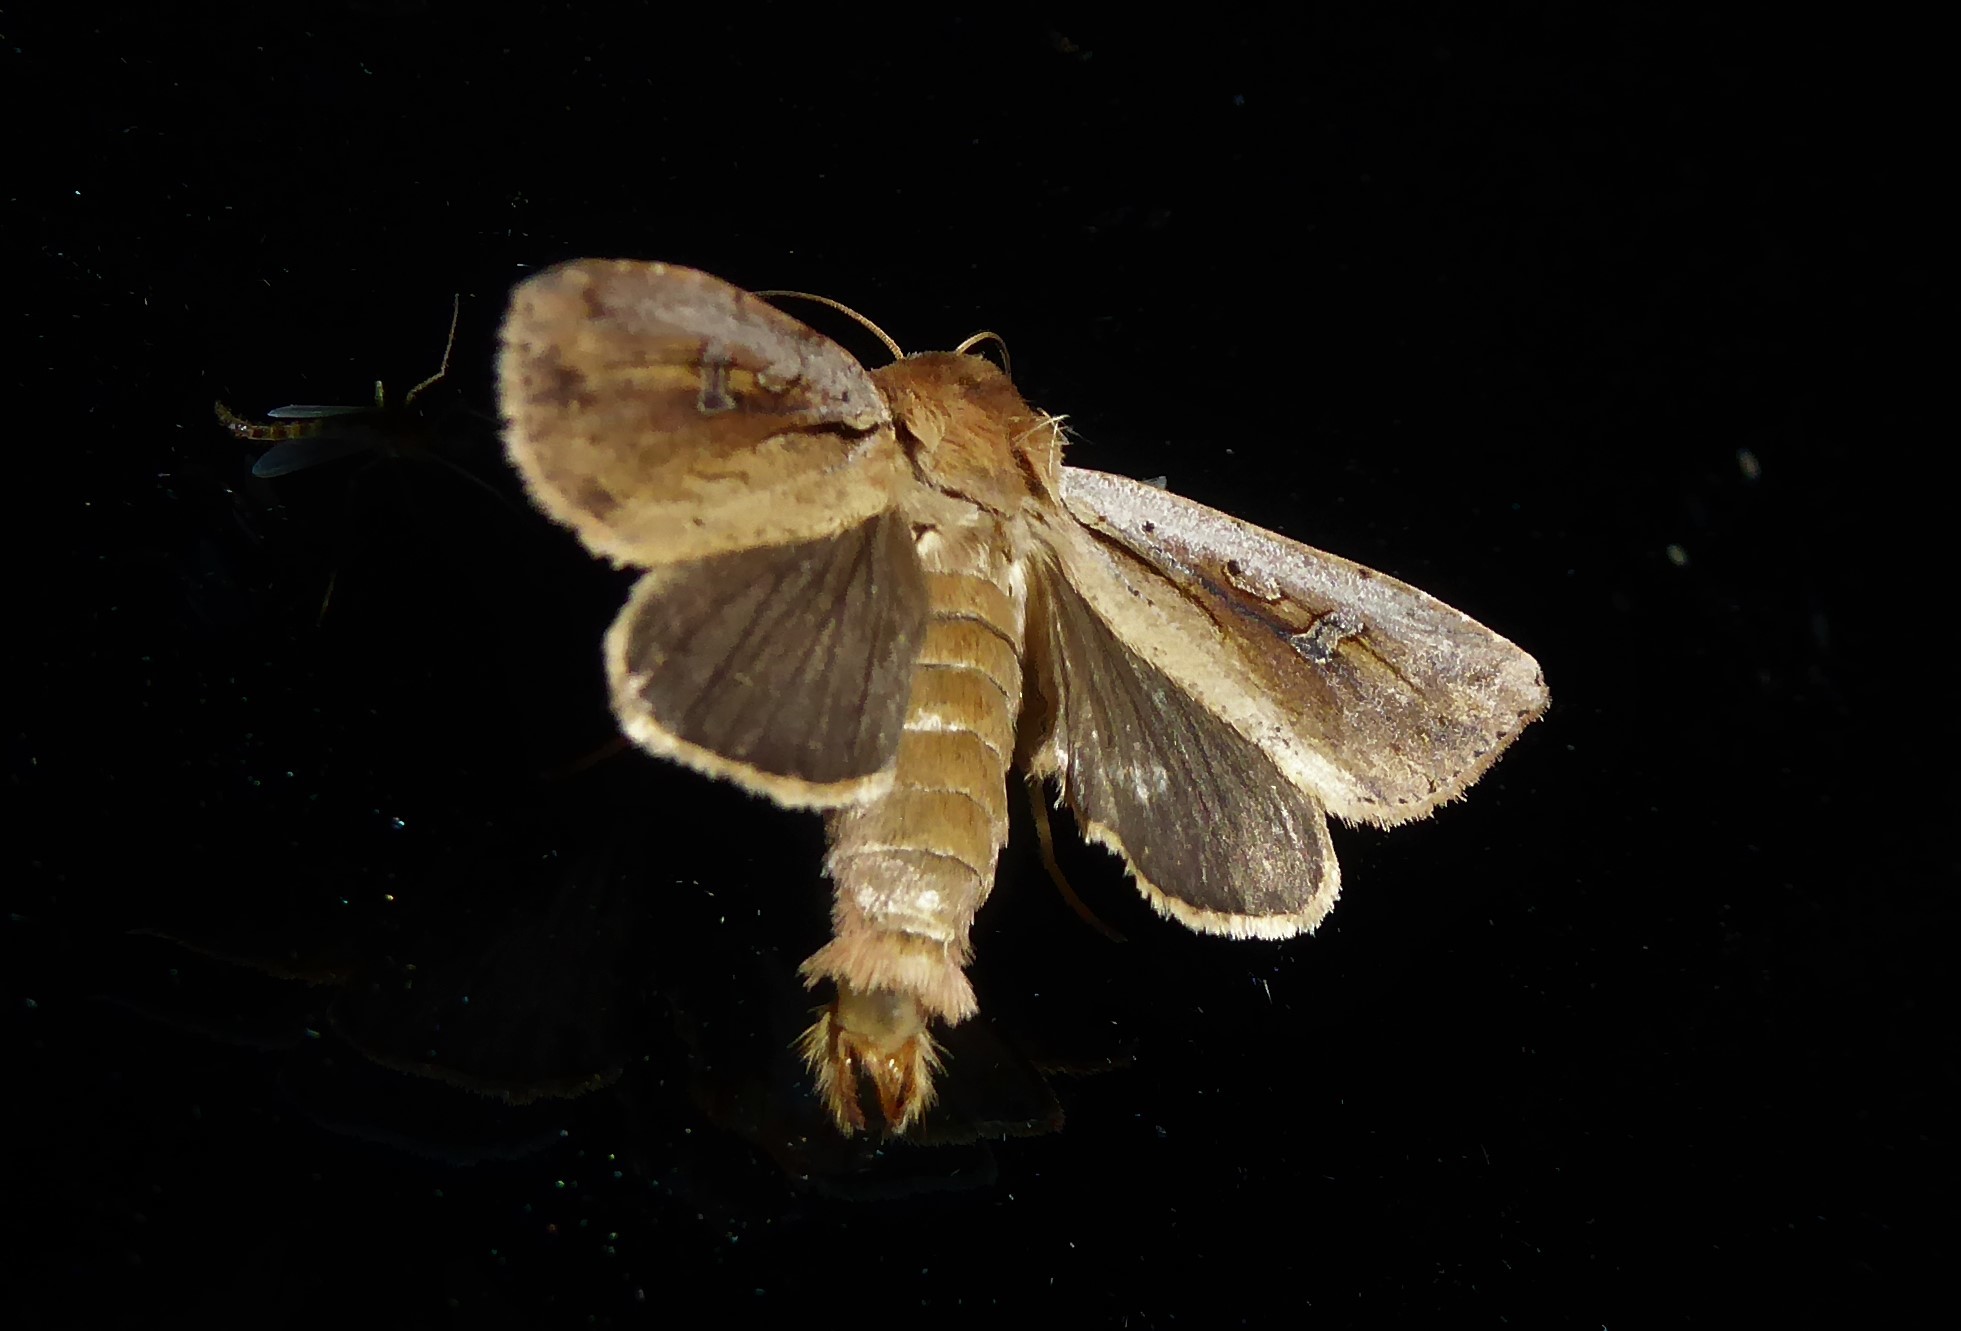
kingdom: Animalia
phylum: Arthropoda
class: Insecta
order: Lepidoptera
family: Noctuidae
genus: Ichneutica
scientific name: Ichneutica atristriga
